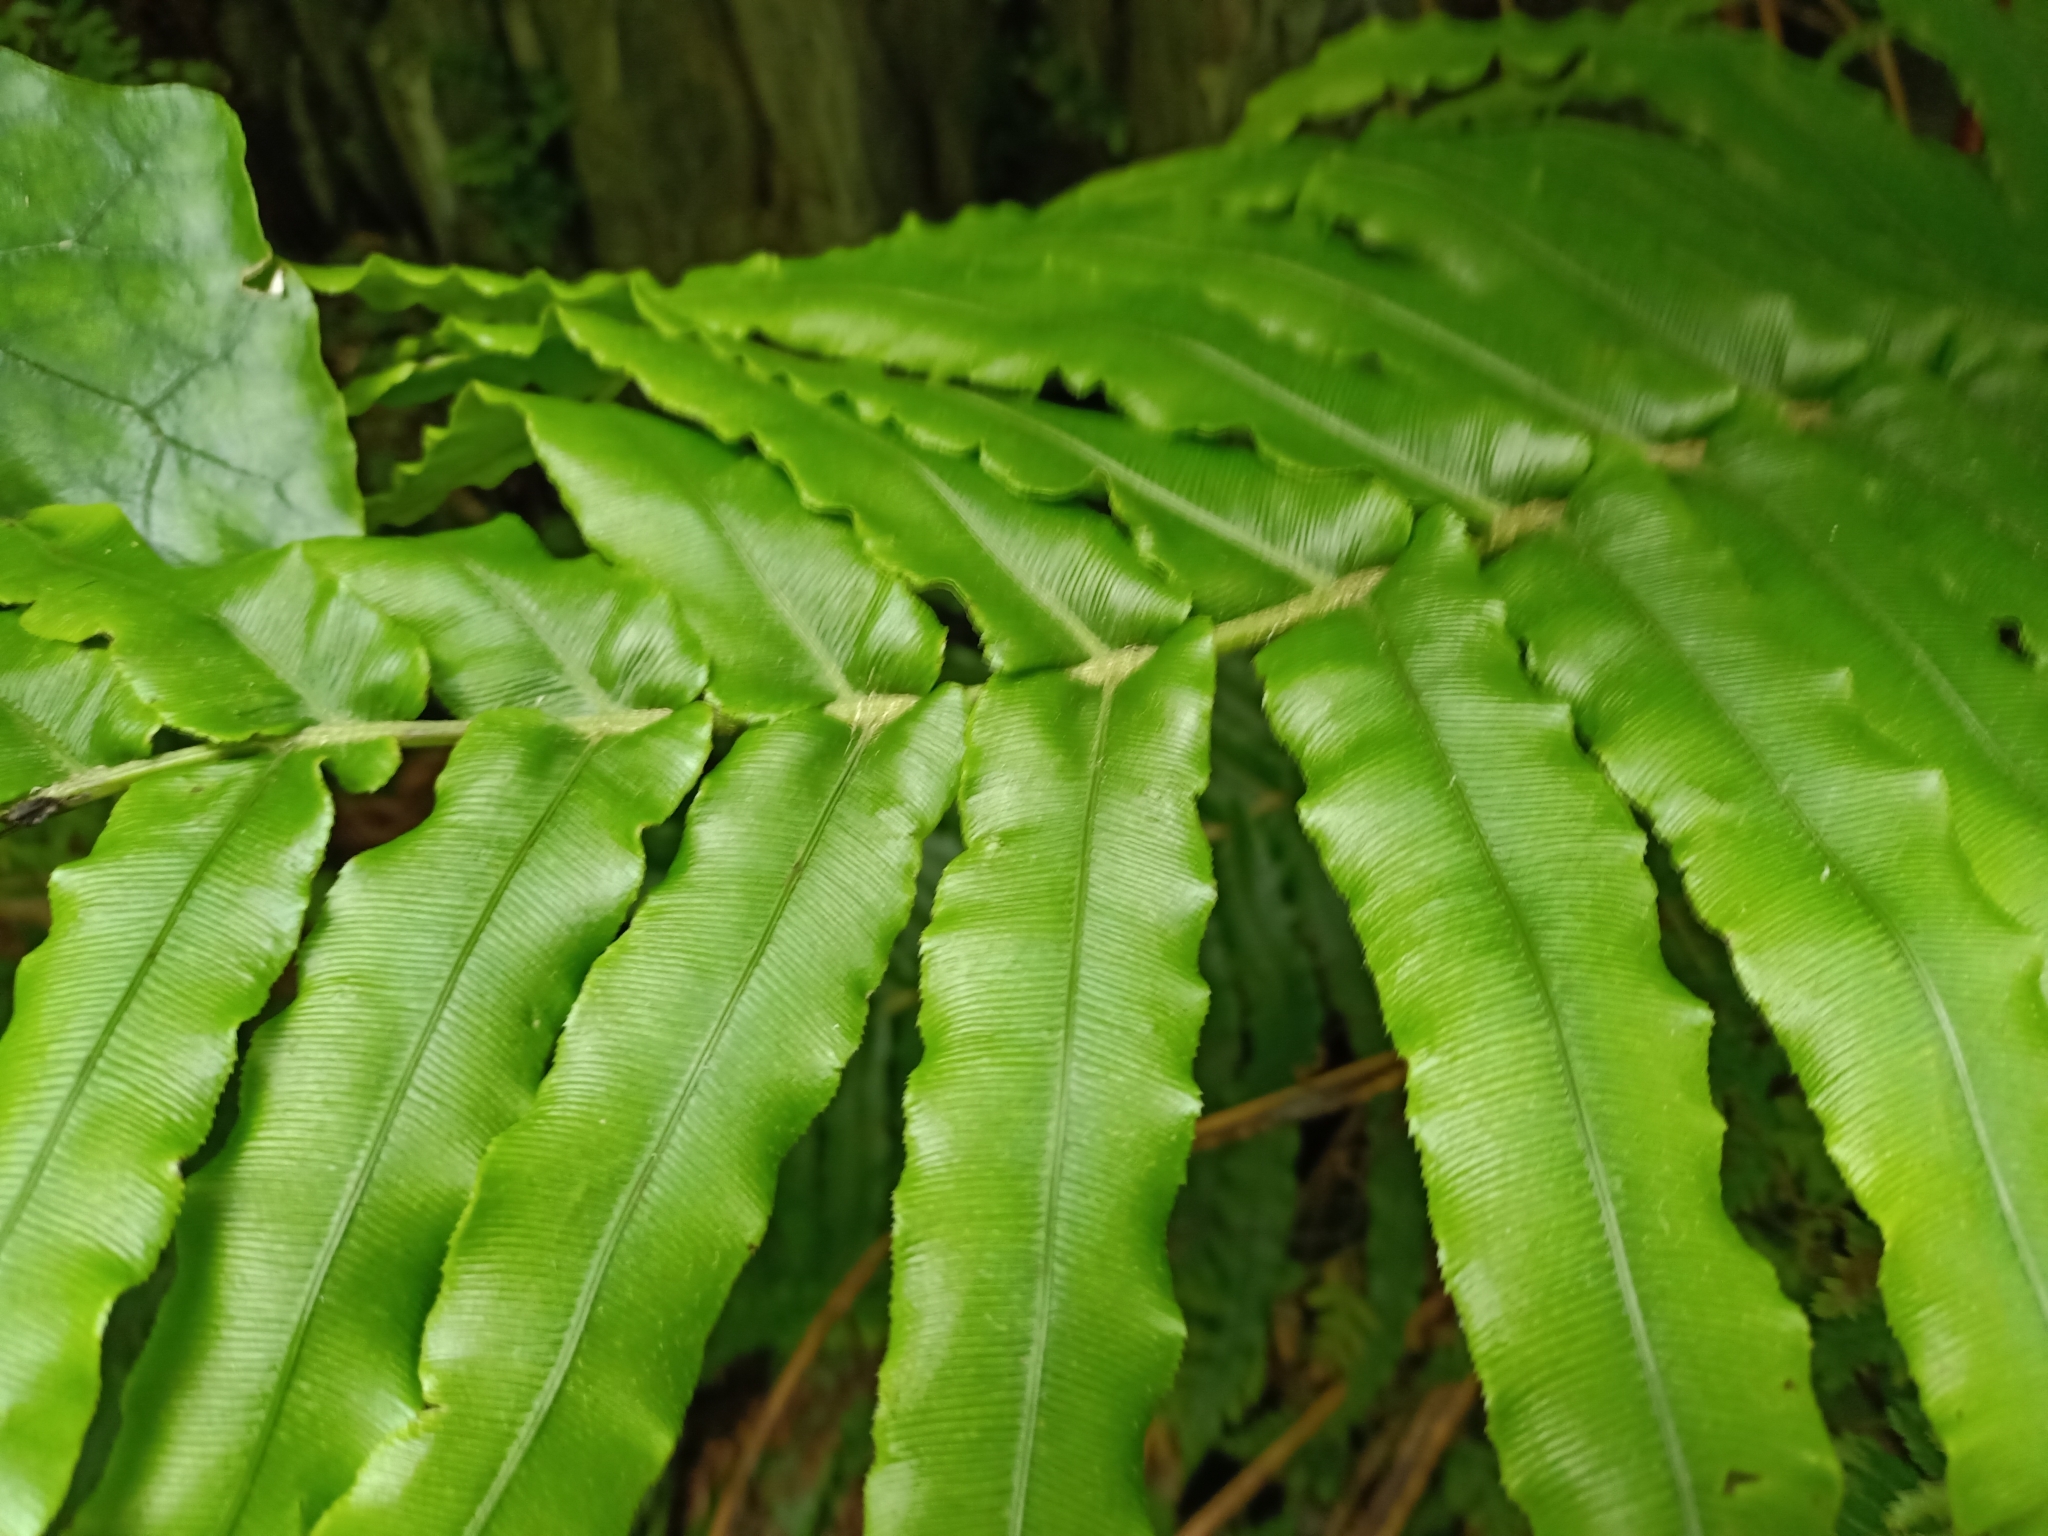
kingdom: Plantae
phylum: Tracheophyta
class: Polypodiopsida
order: Polypodiales
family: Blechnaceae
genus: Parablechnum
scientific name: Parablechnum novae-zelandiae
